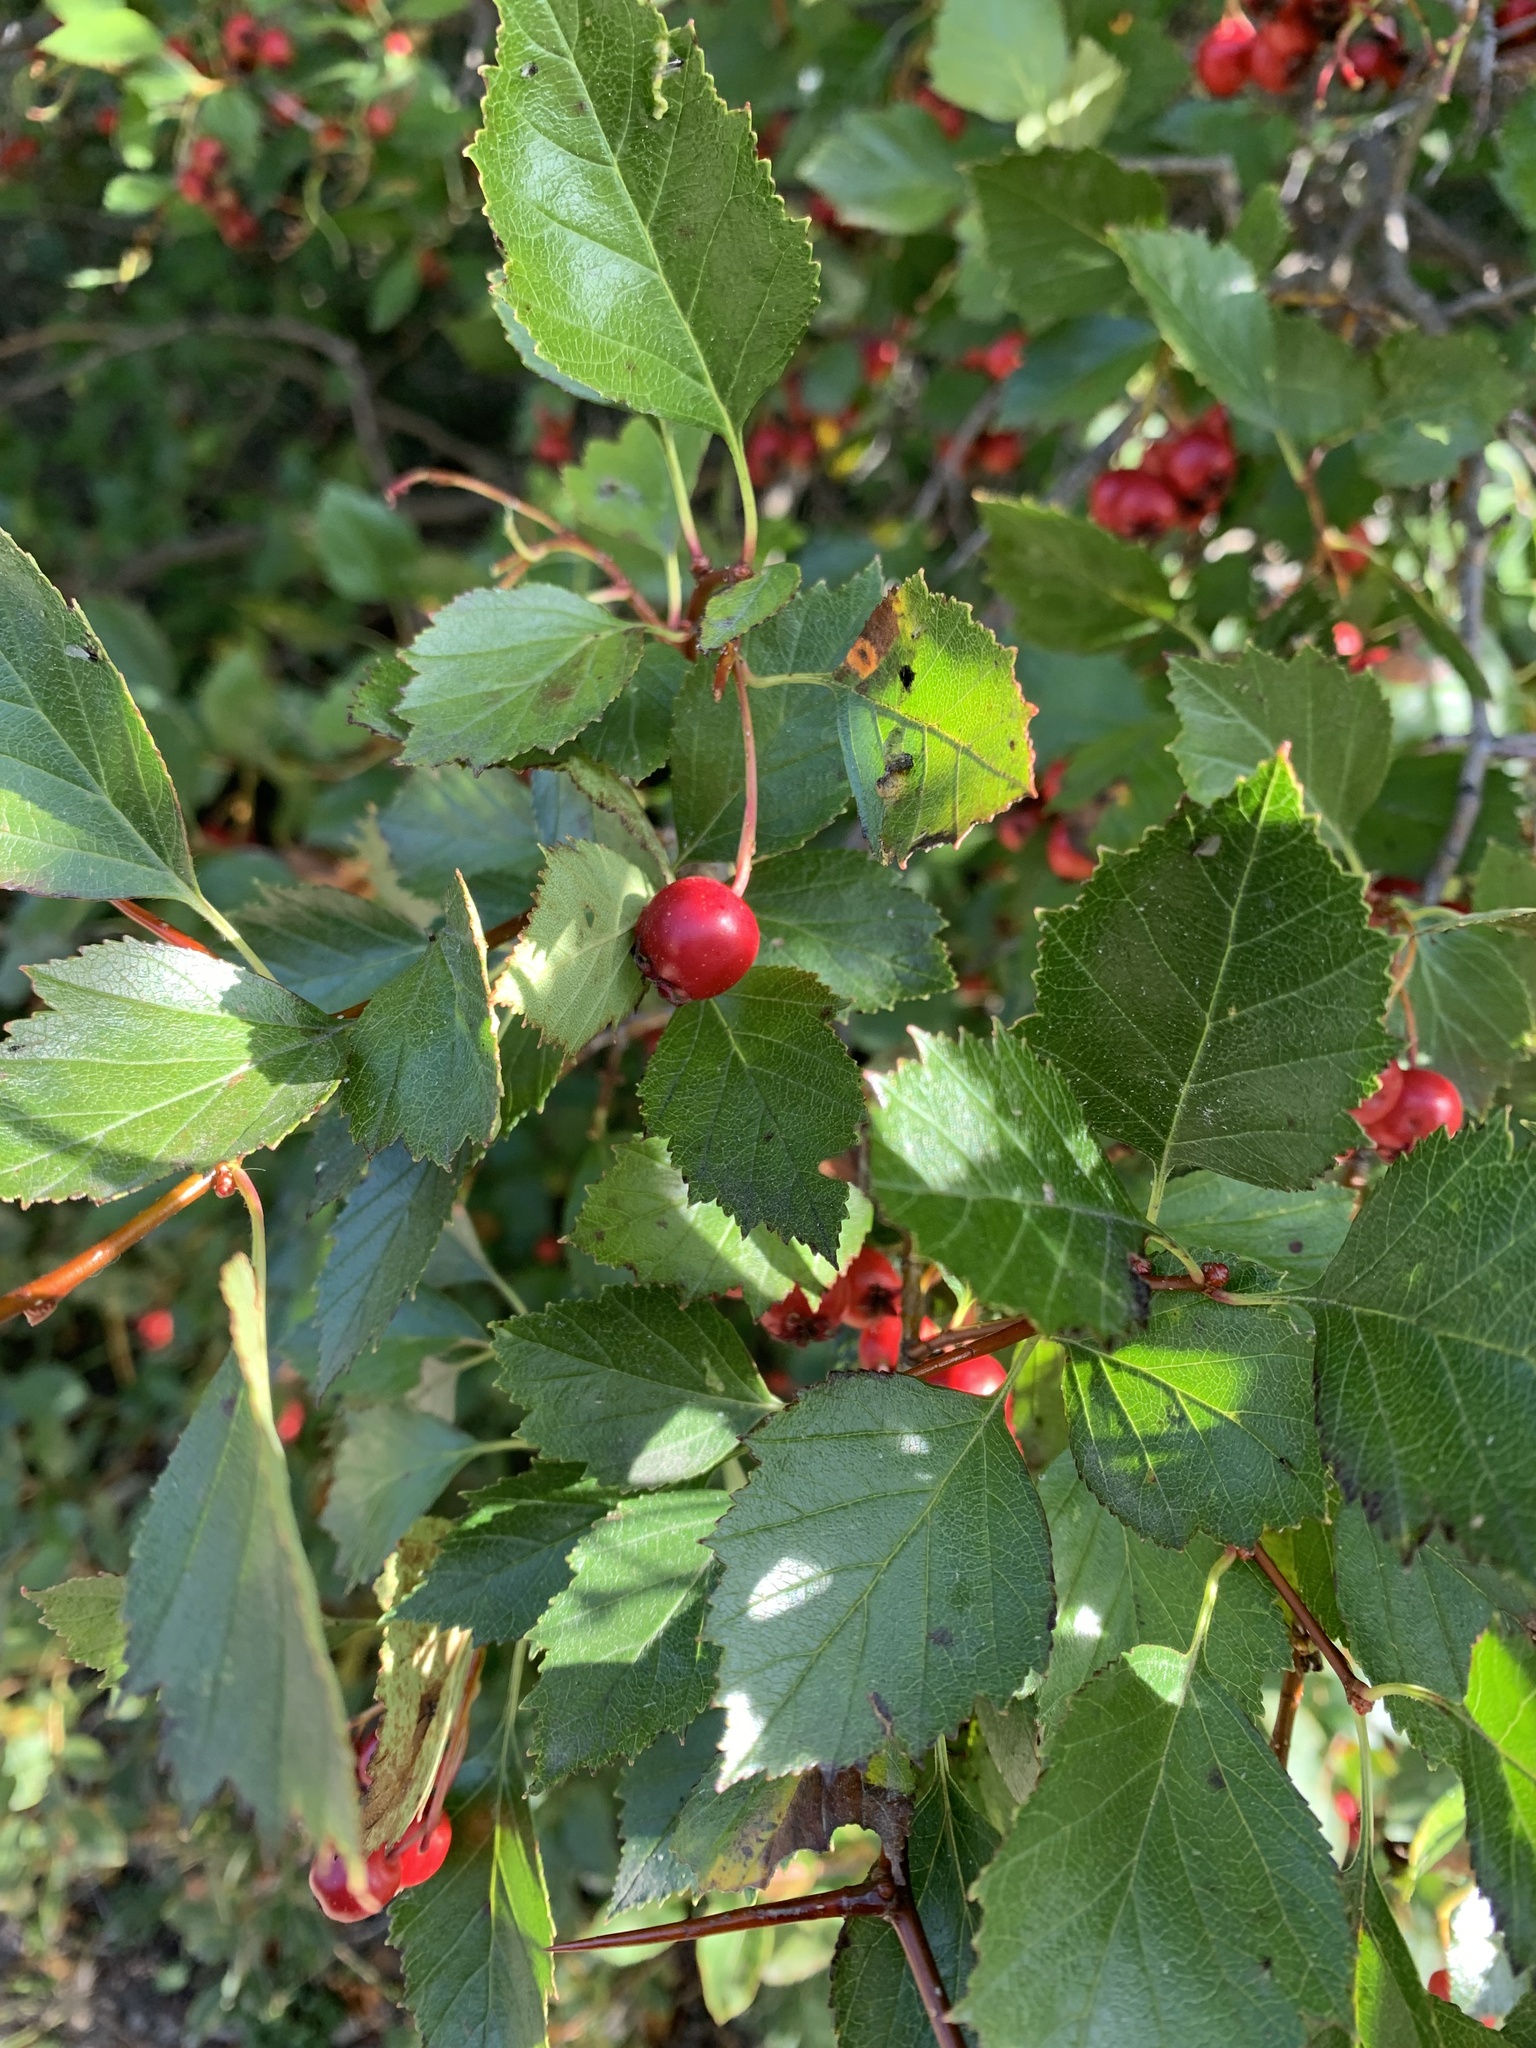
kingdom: Plantae
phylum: Tracheophyta
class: Magnoliopsida
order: Rosales
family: Rosaceae
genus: Crataegus
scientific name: Crataegus chrysocarpa
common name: Fire-berry hawthorn
